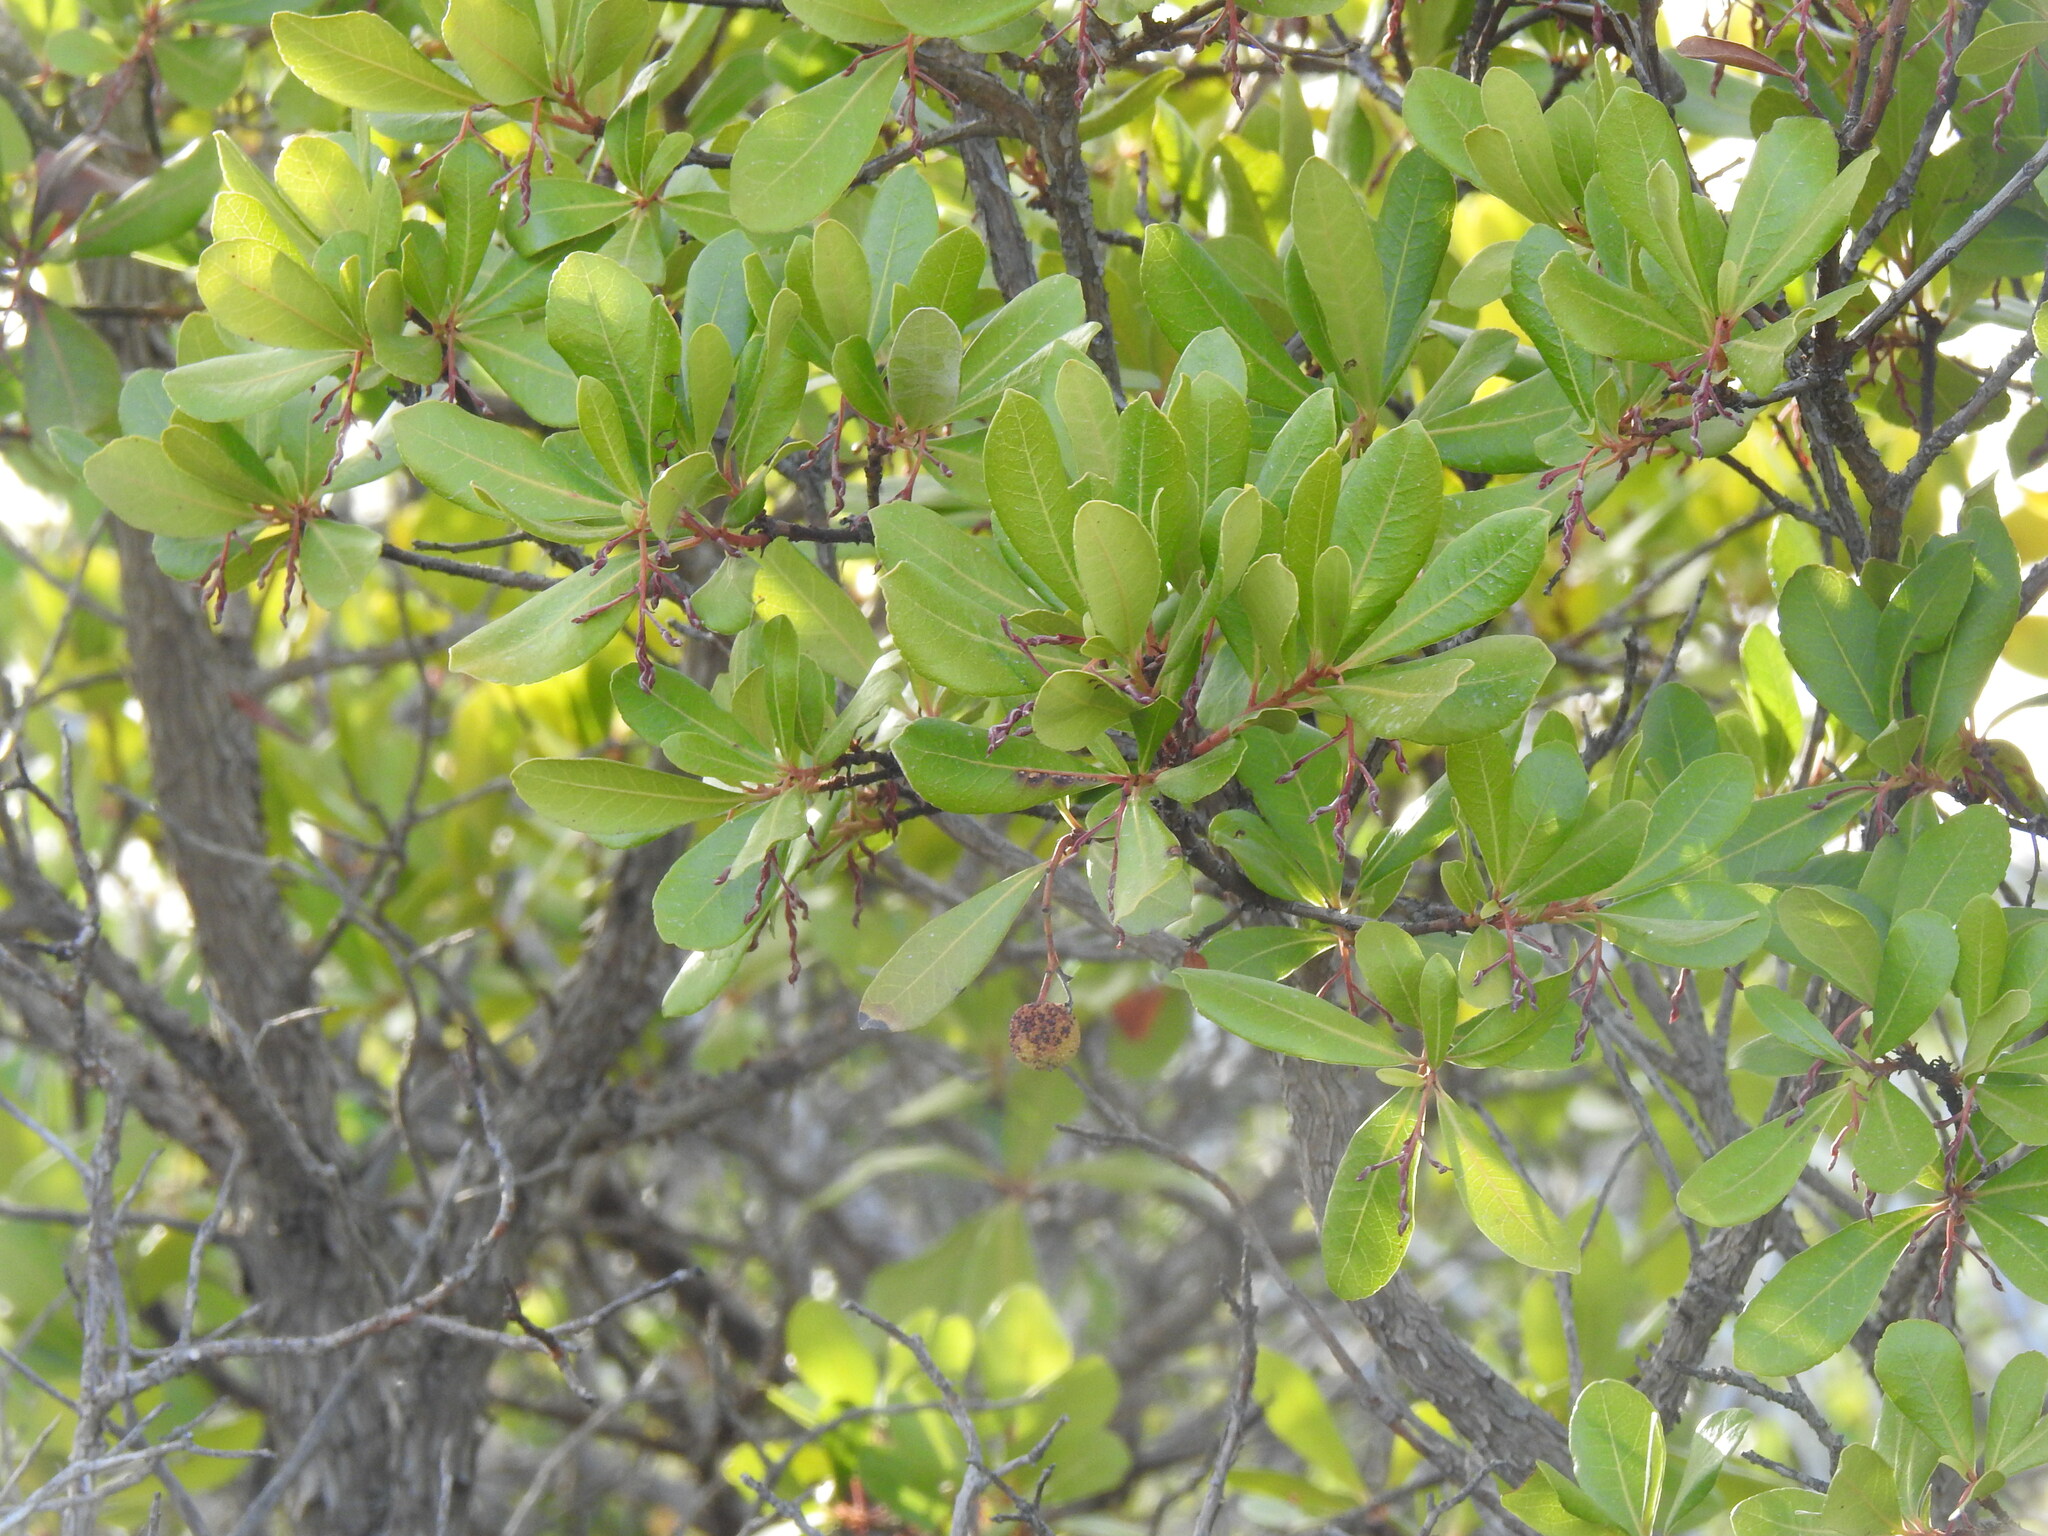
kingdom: Plantae
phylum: Tracheophyta
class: Magnoliopsida
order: Ericales
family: Ericaceae
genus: Arbutus
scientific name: Arbutus unedo
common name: Strawberry-tree
